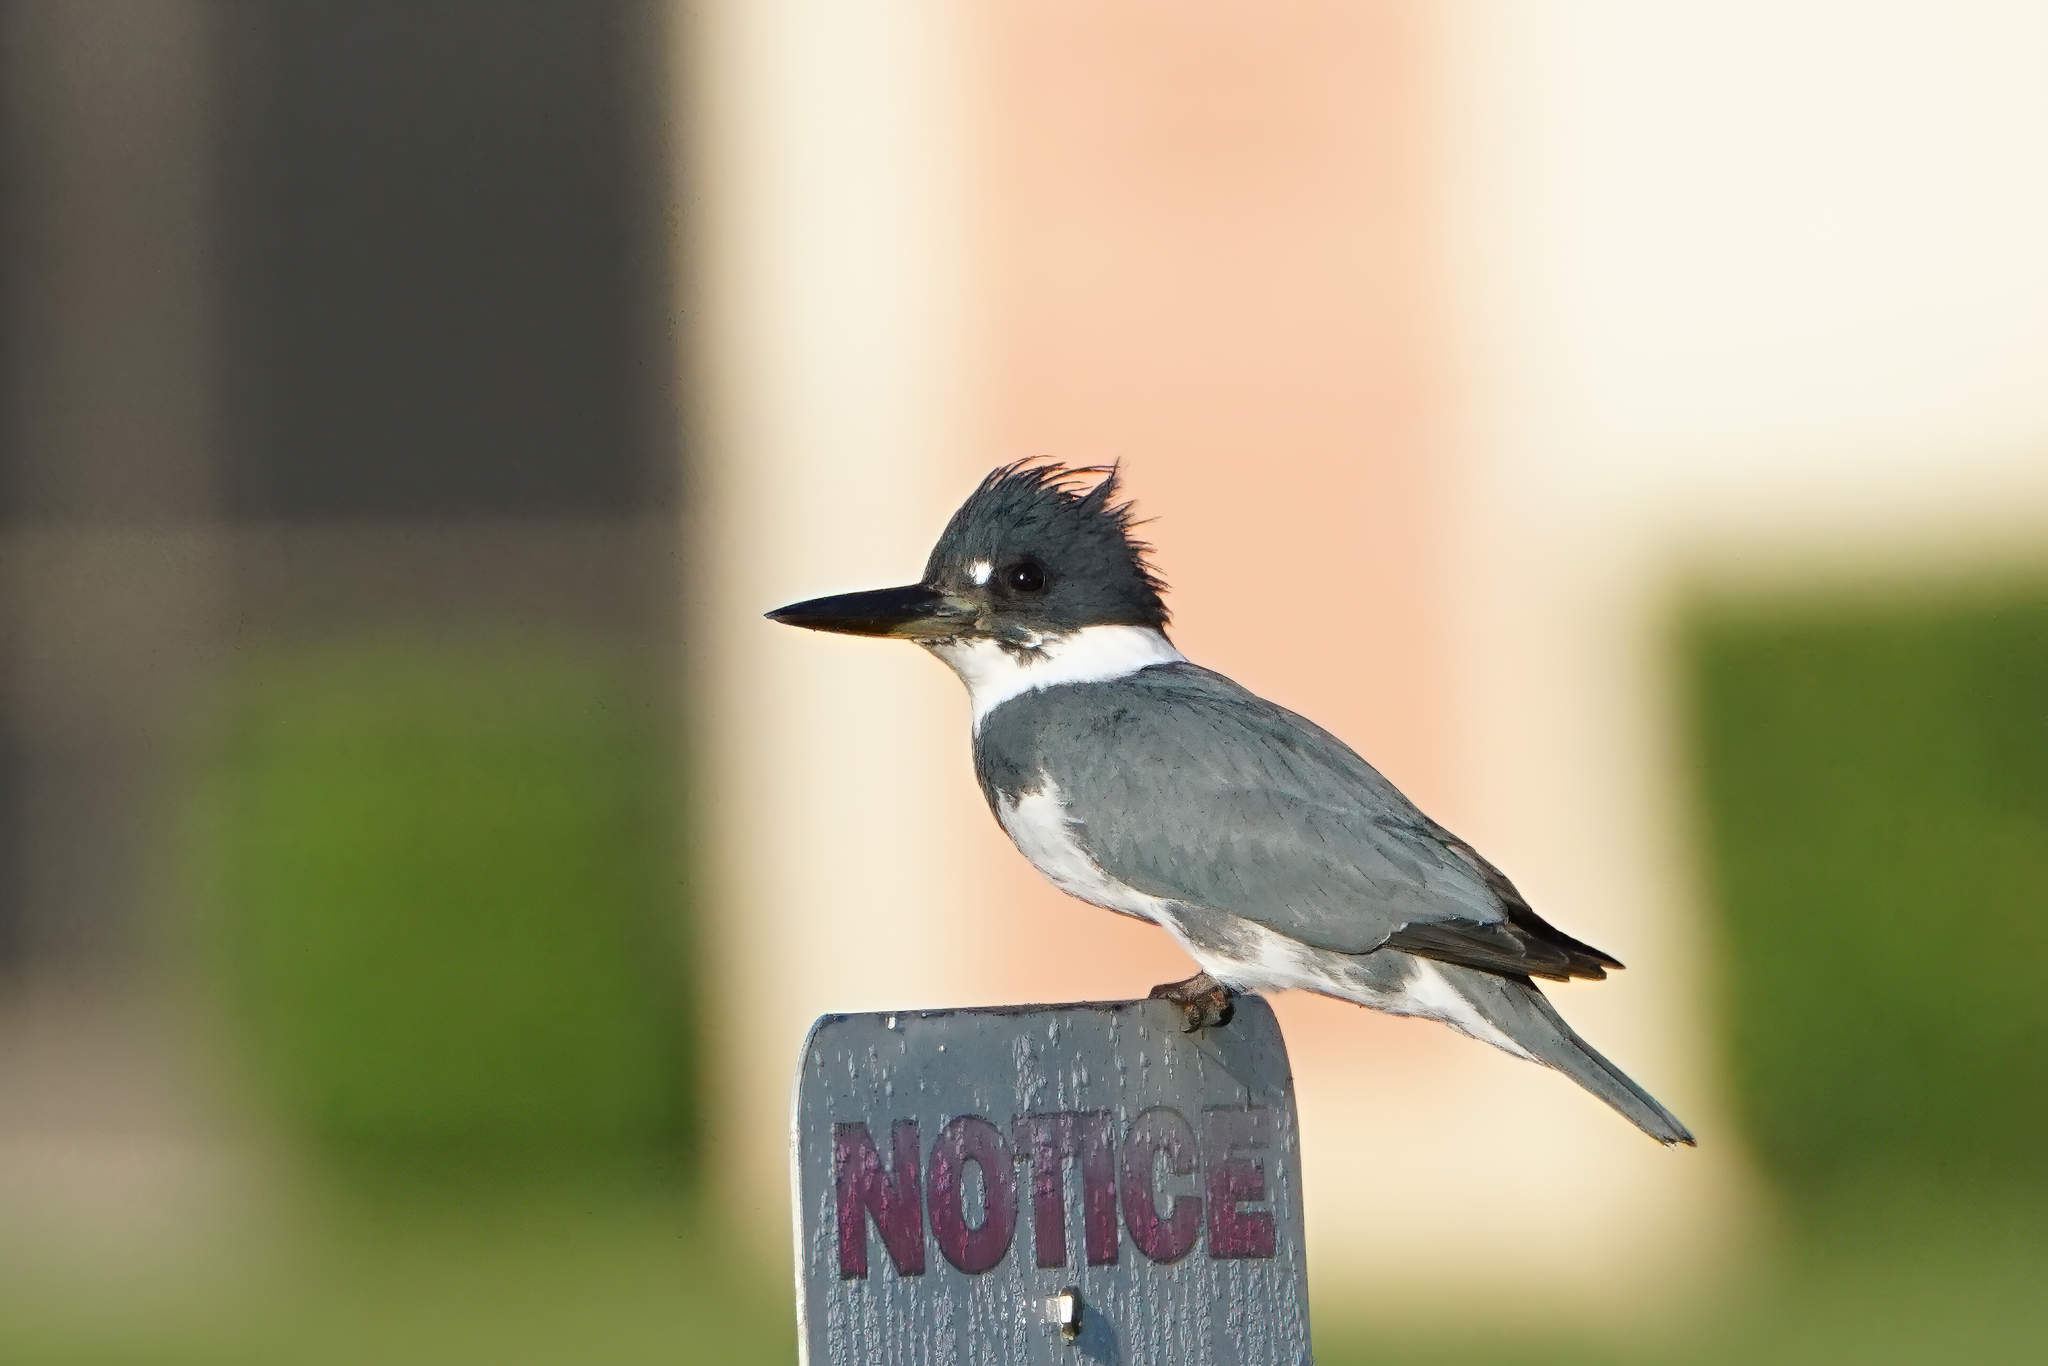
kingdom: Animalia
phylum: Chordata
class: Aves
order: Coraciiformes
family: Alcedinidae
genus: Megaceryle
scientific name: Megaceryle alcyon
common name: Belted kingfisher
